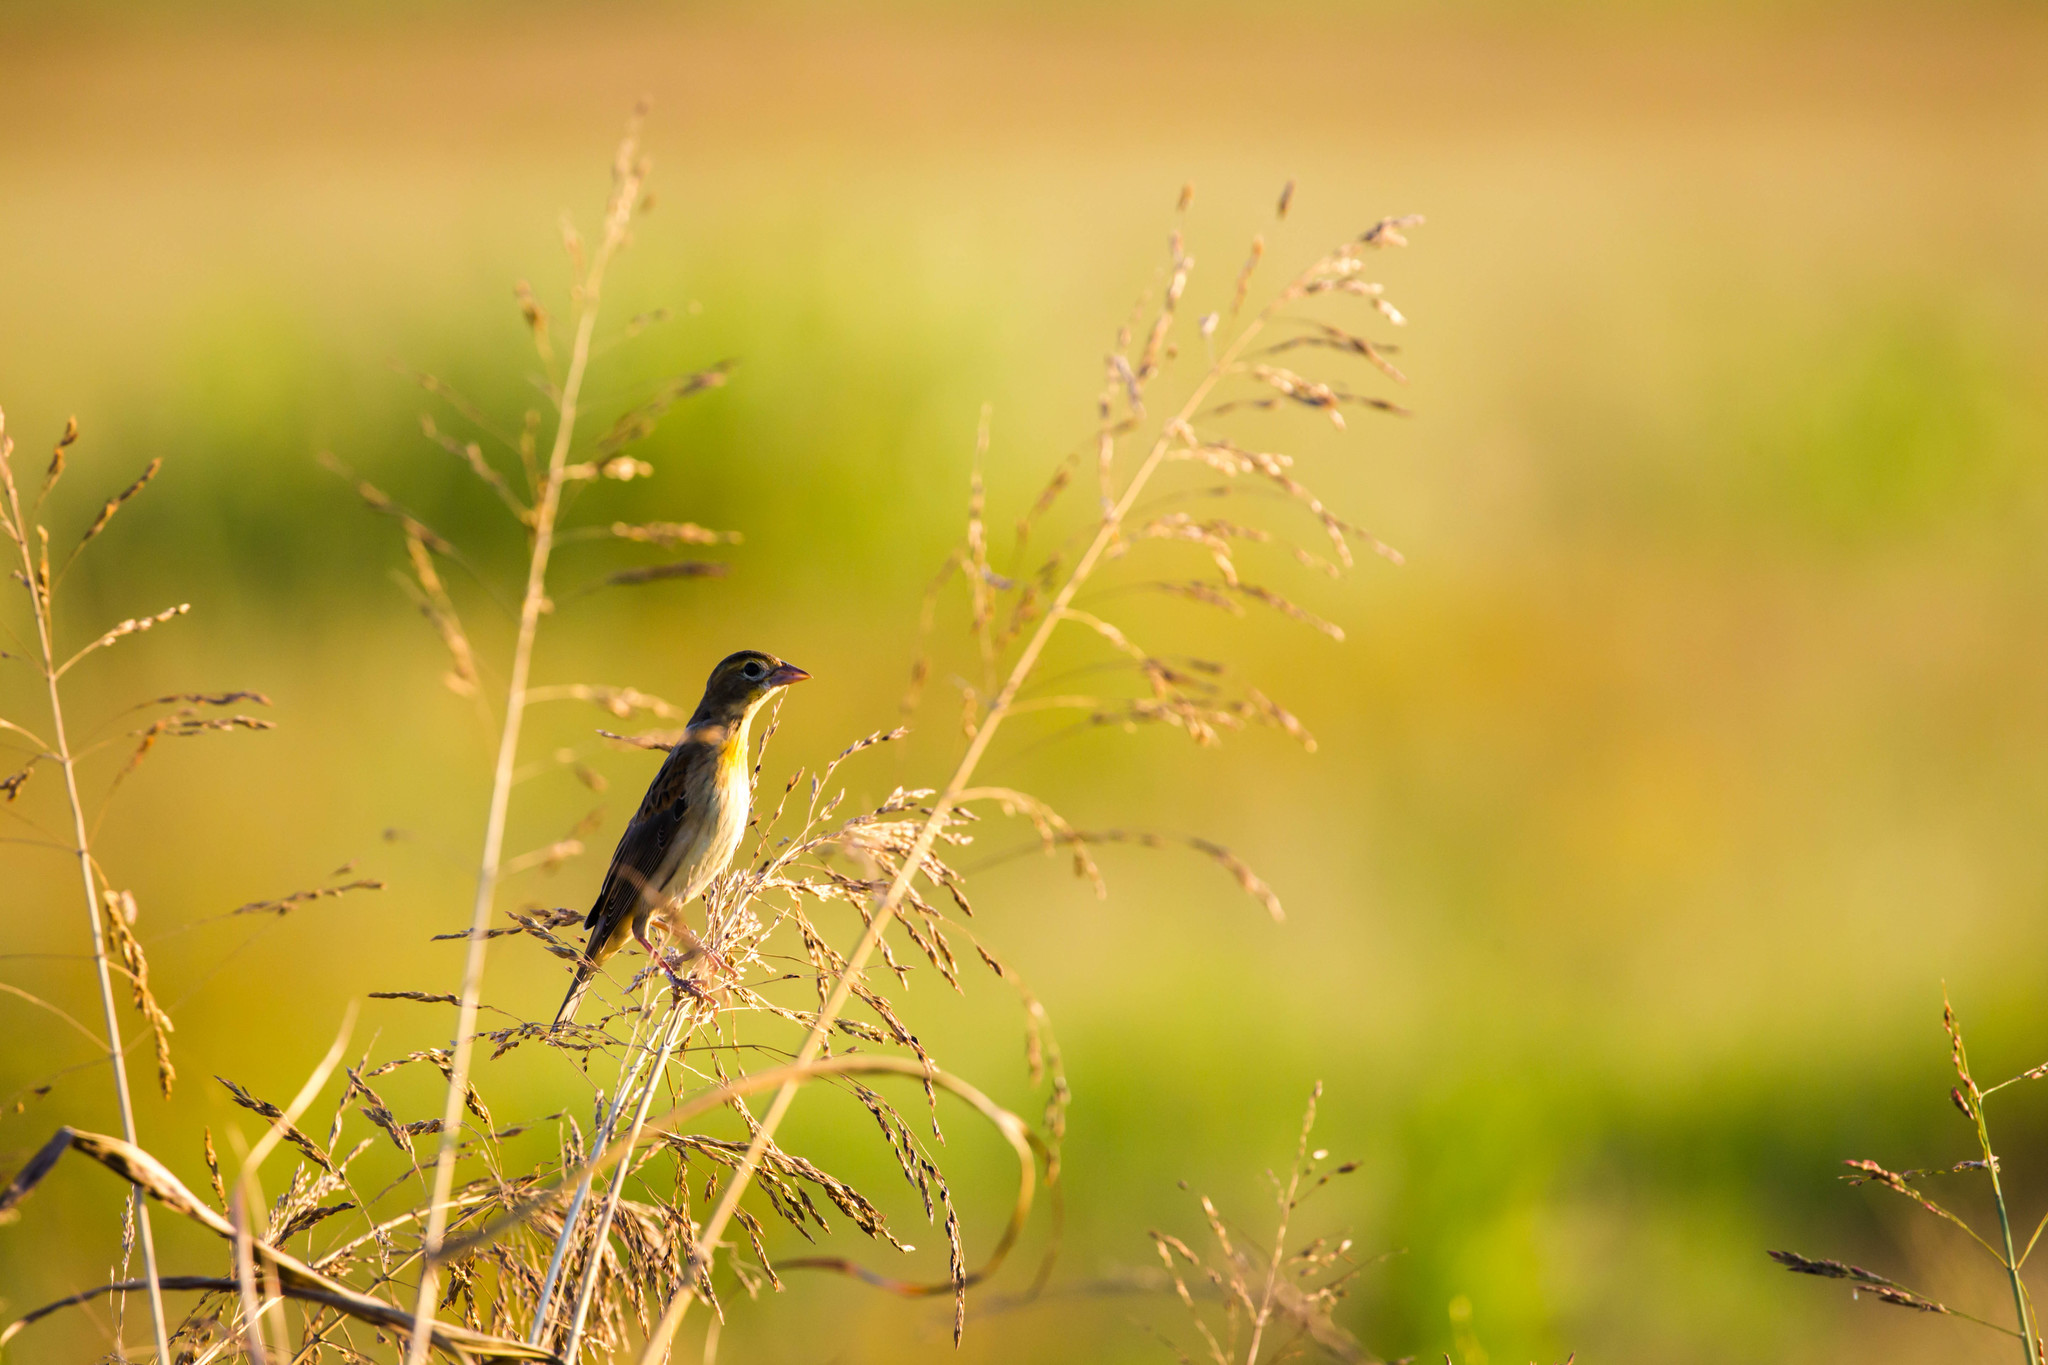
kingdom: Animalia
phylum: Chordata
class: Aves
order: Passeriformes
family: Cardinalidae
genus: Spiza
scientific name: Spiza americana
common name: Dickcissel
